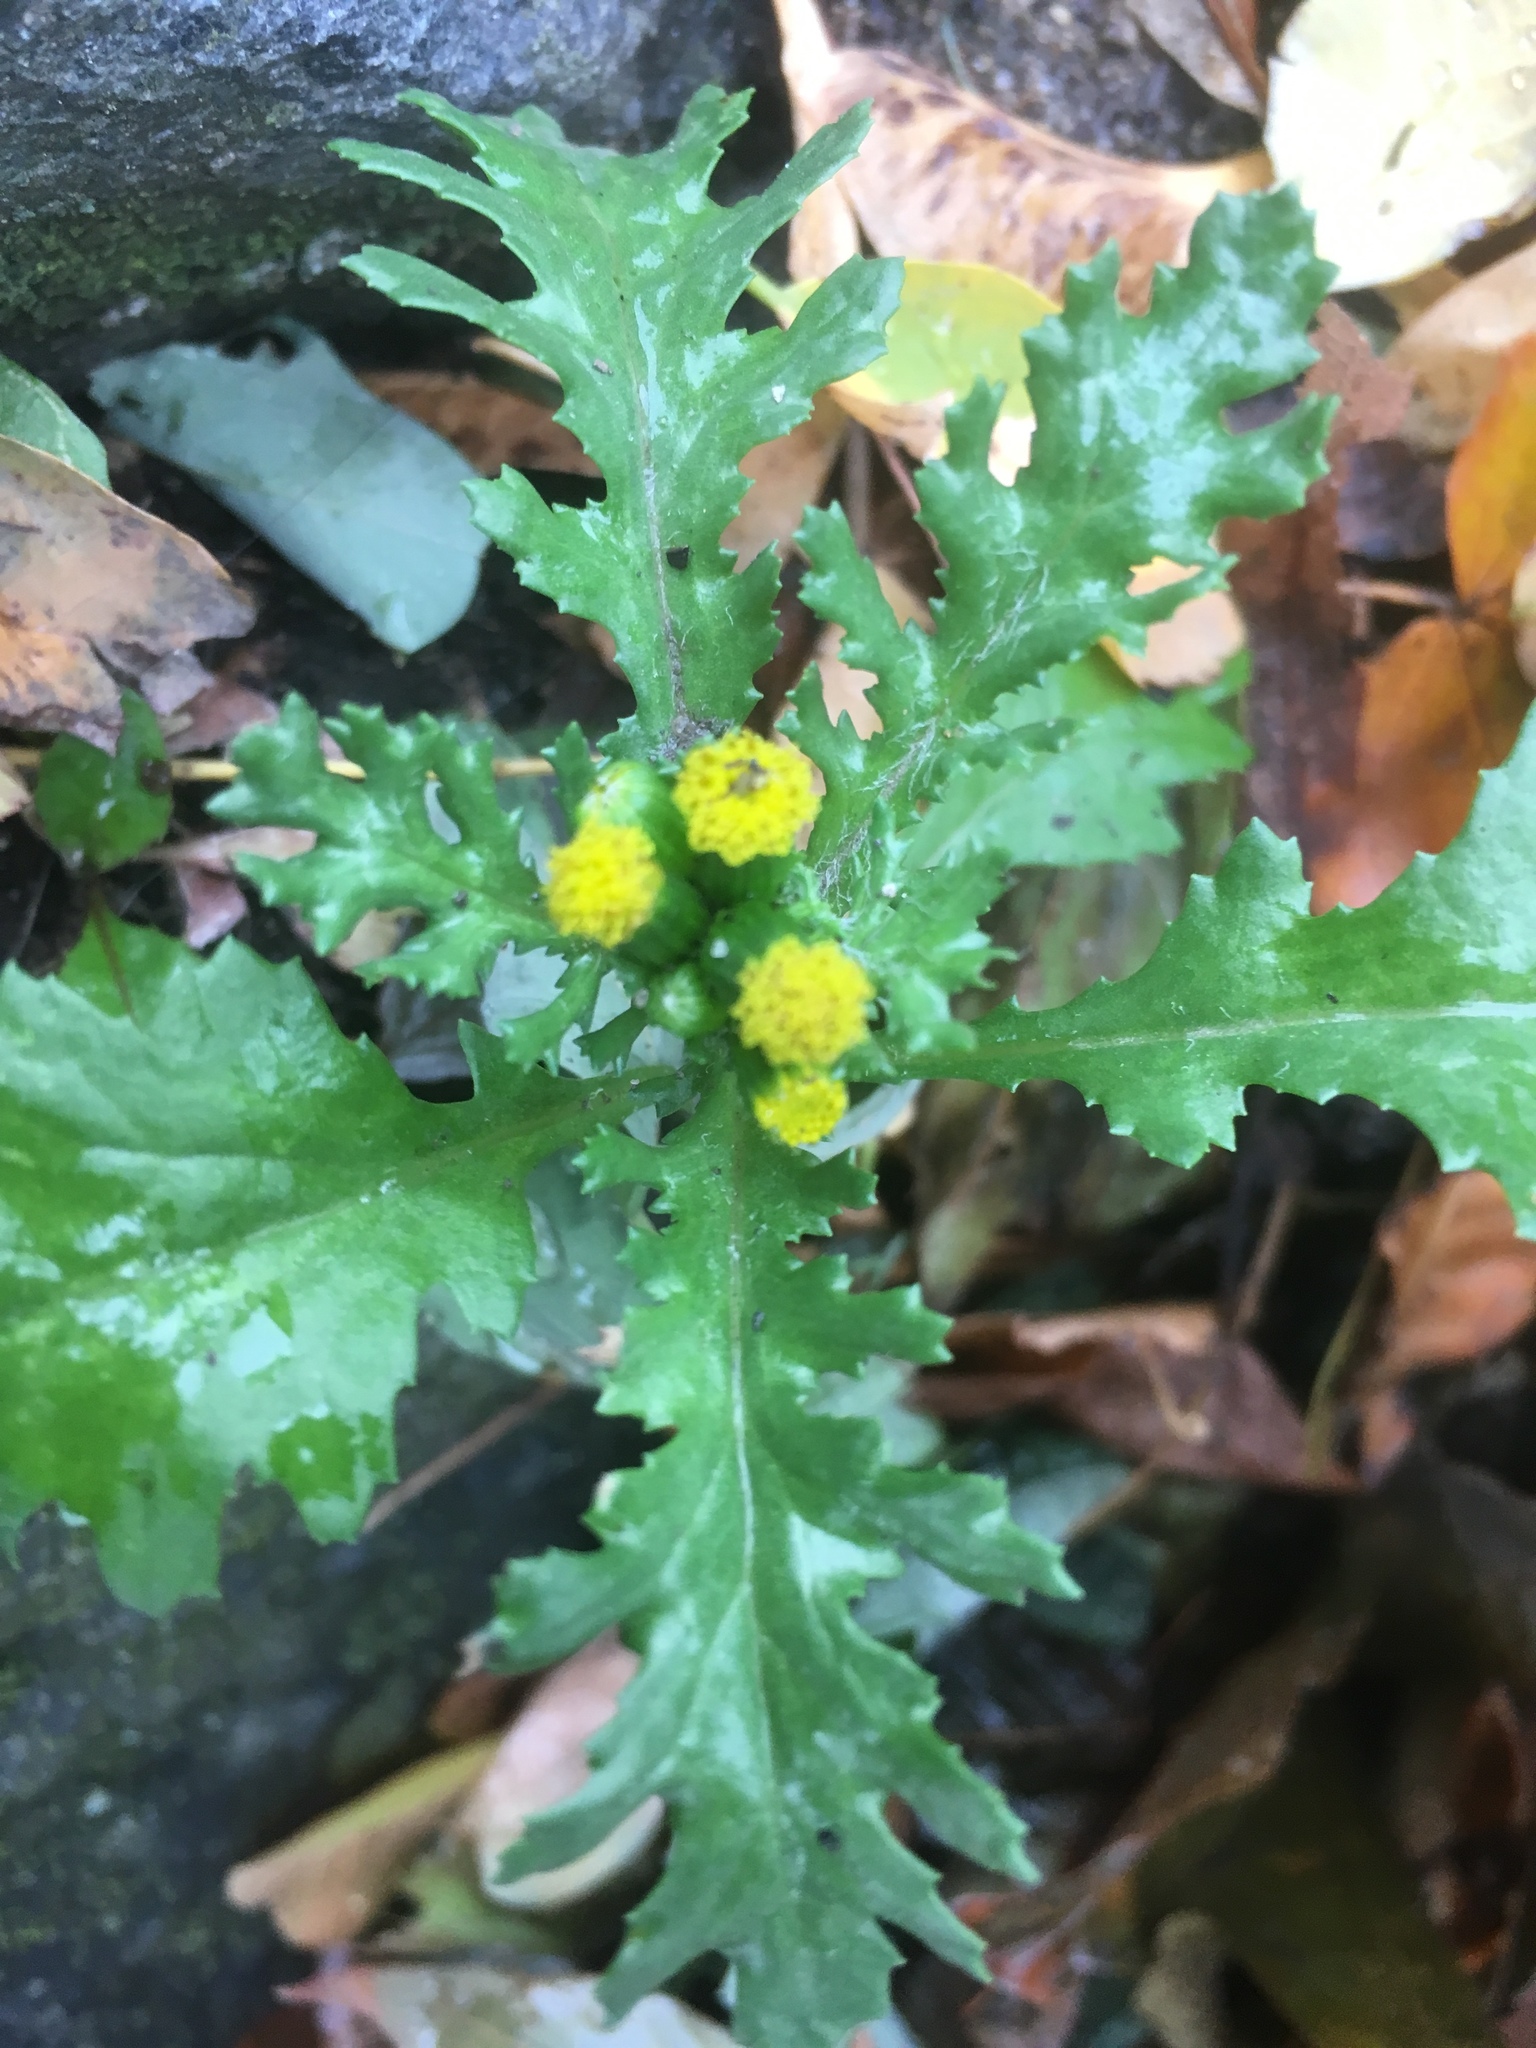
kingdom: Plantae
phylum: Tracheophyta
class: Magnoliopsida
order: Asterales
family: Asteraceae
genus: Senecio
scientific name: Senecio vulgaris
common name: Old-man-in-the-spring
